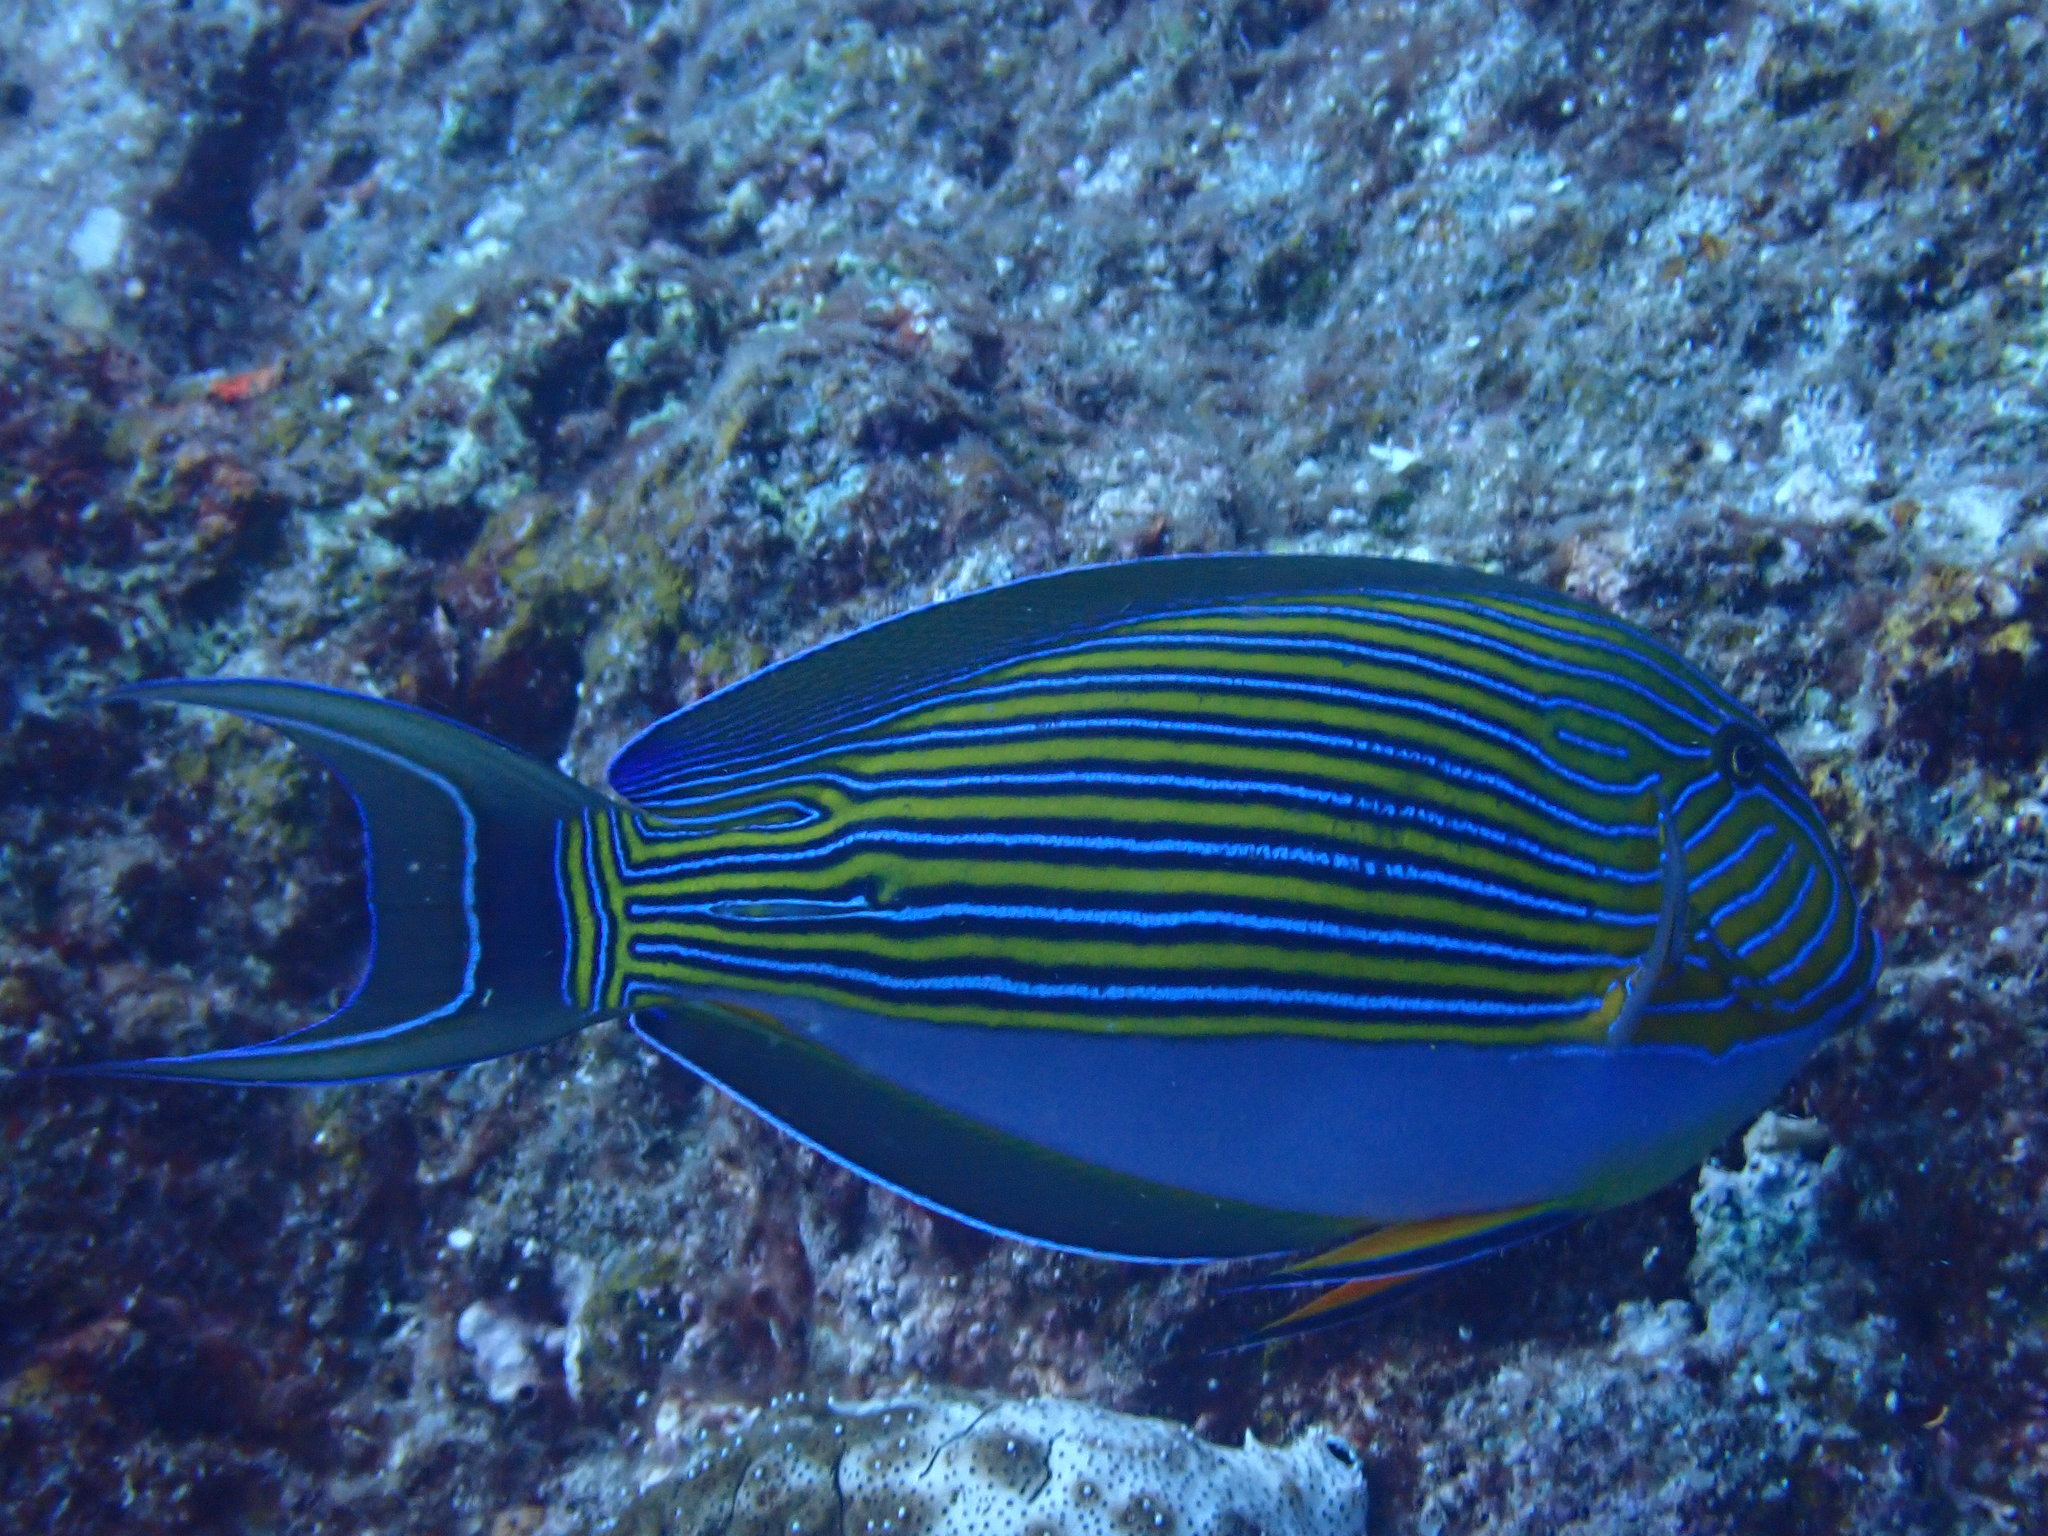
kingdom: Animalia
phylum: Chordata
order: Perciformes
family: Acanthuridae
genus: Acanthurus
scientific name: Acanthurus lineatus
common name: Striped surgeonfish
